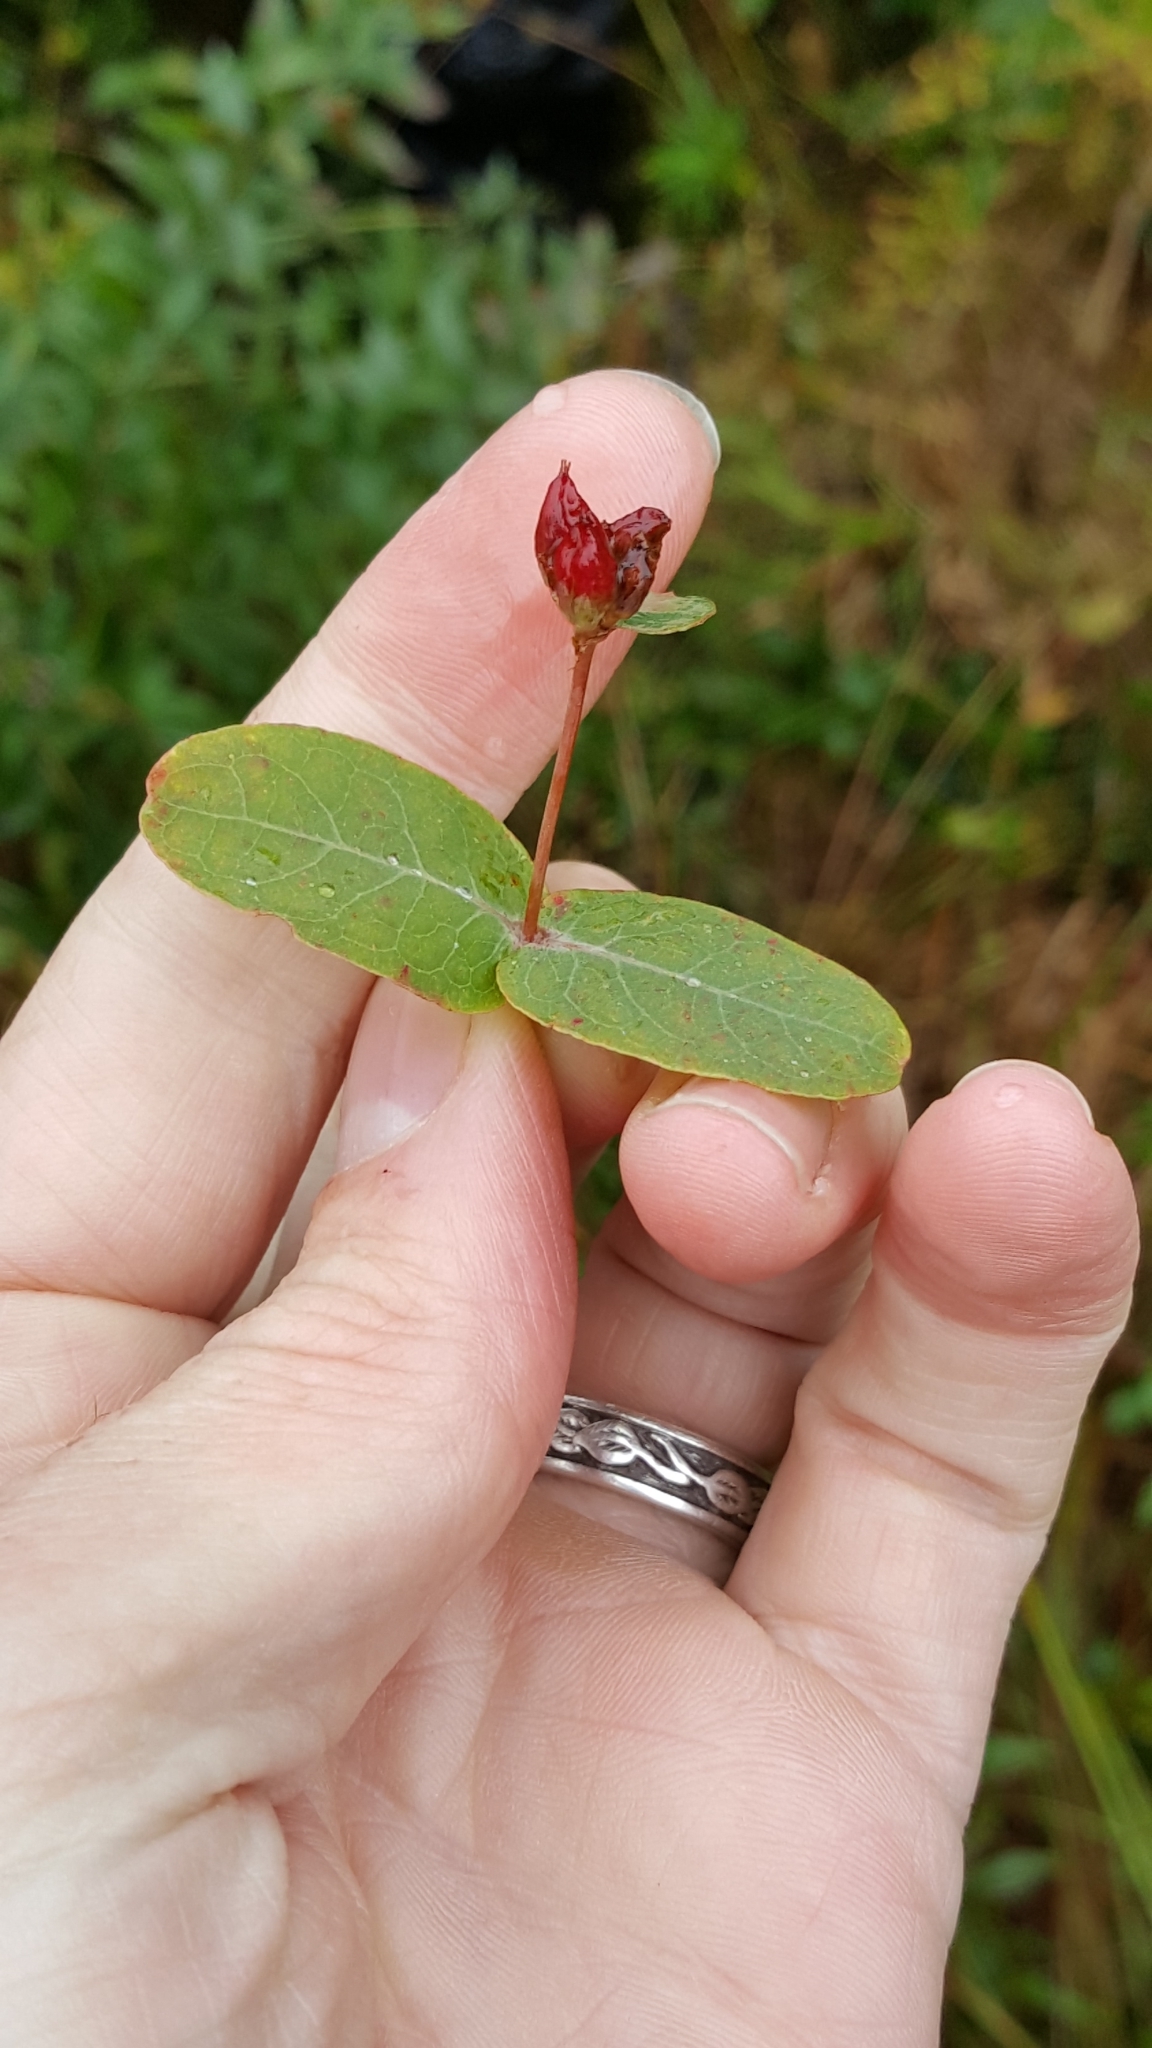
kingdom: Plantae
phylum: Tracheophyta
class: Magnoliopsida
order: Malpighiales
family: Hypericaceae
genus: Triadenum
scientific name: Triadenum fraseri
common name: Fraser's marsh st. johnswort
